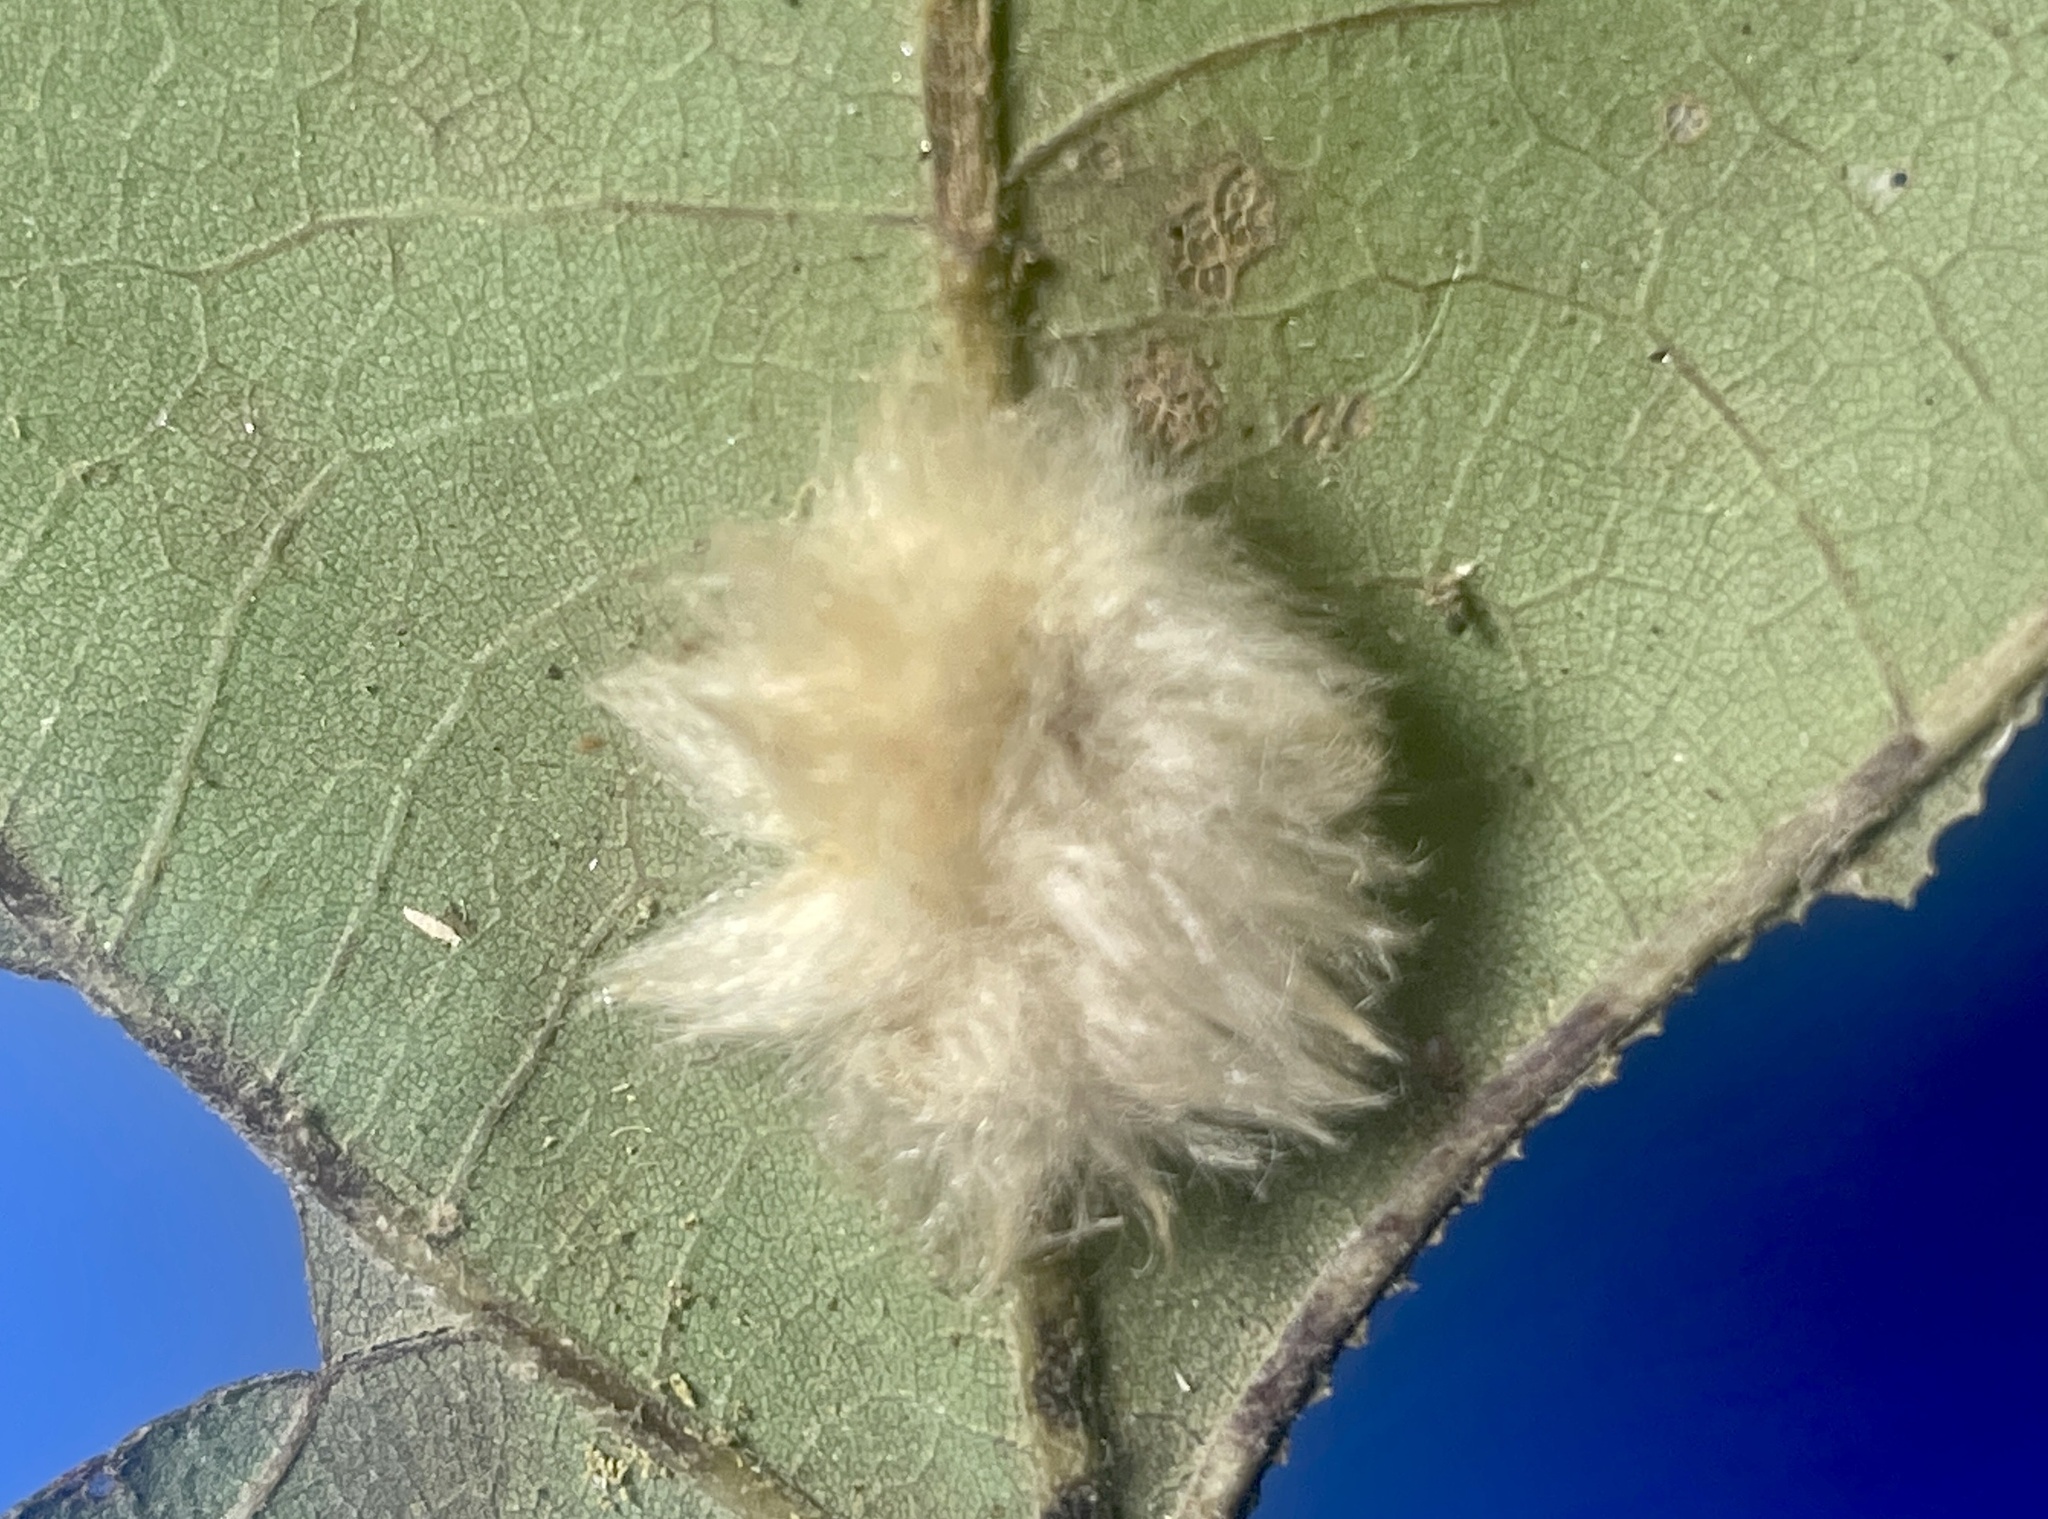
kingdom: Animalia
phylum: Arthropoda
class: Insecta
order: Hymenoptera
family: Cynipidae
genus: Andricus
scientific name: Andricus Druon pattoni
